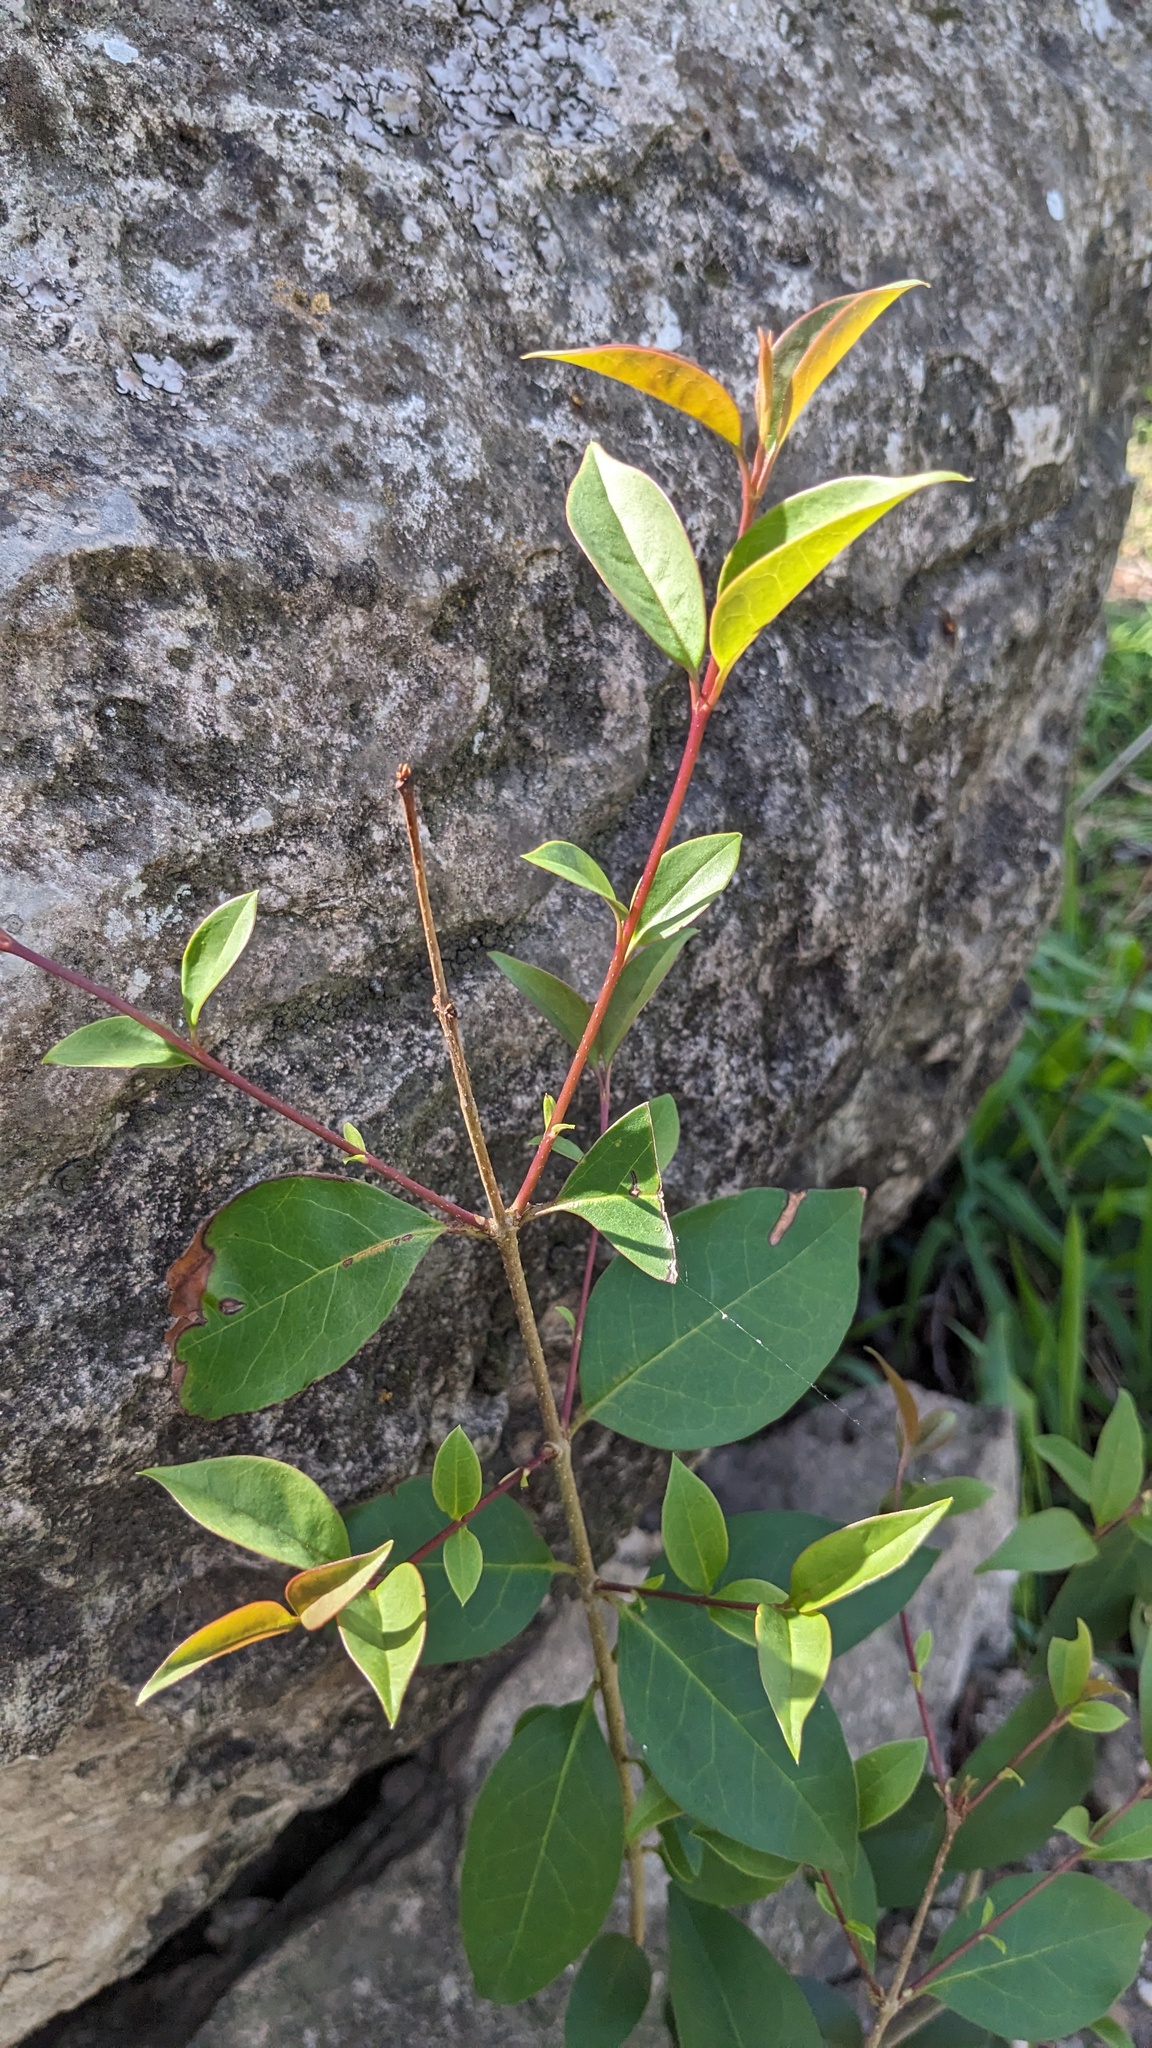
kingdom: Plantae
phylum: Tracheophyta
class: Magnoliopsida
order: Lamiales
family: Oleaceae
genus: Ligustrum
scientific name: Ligustrum lucidum
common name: Glossy privet
